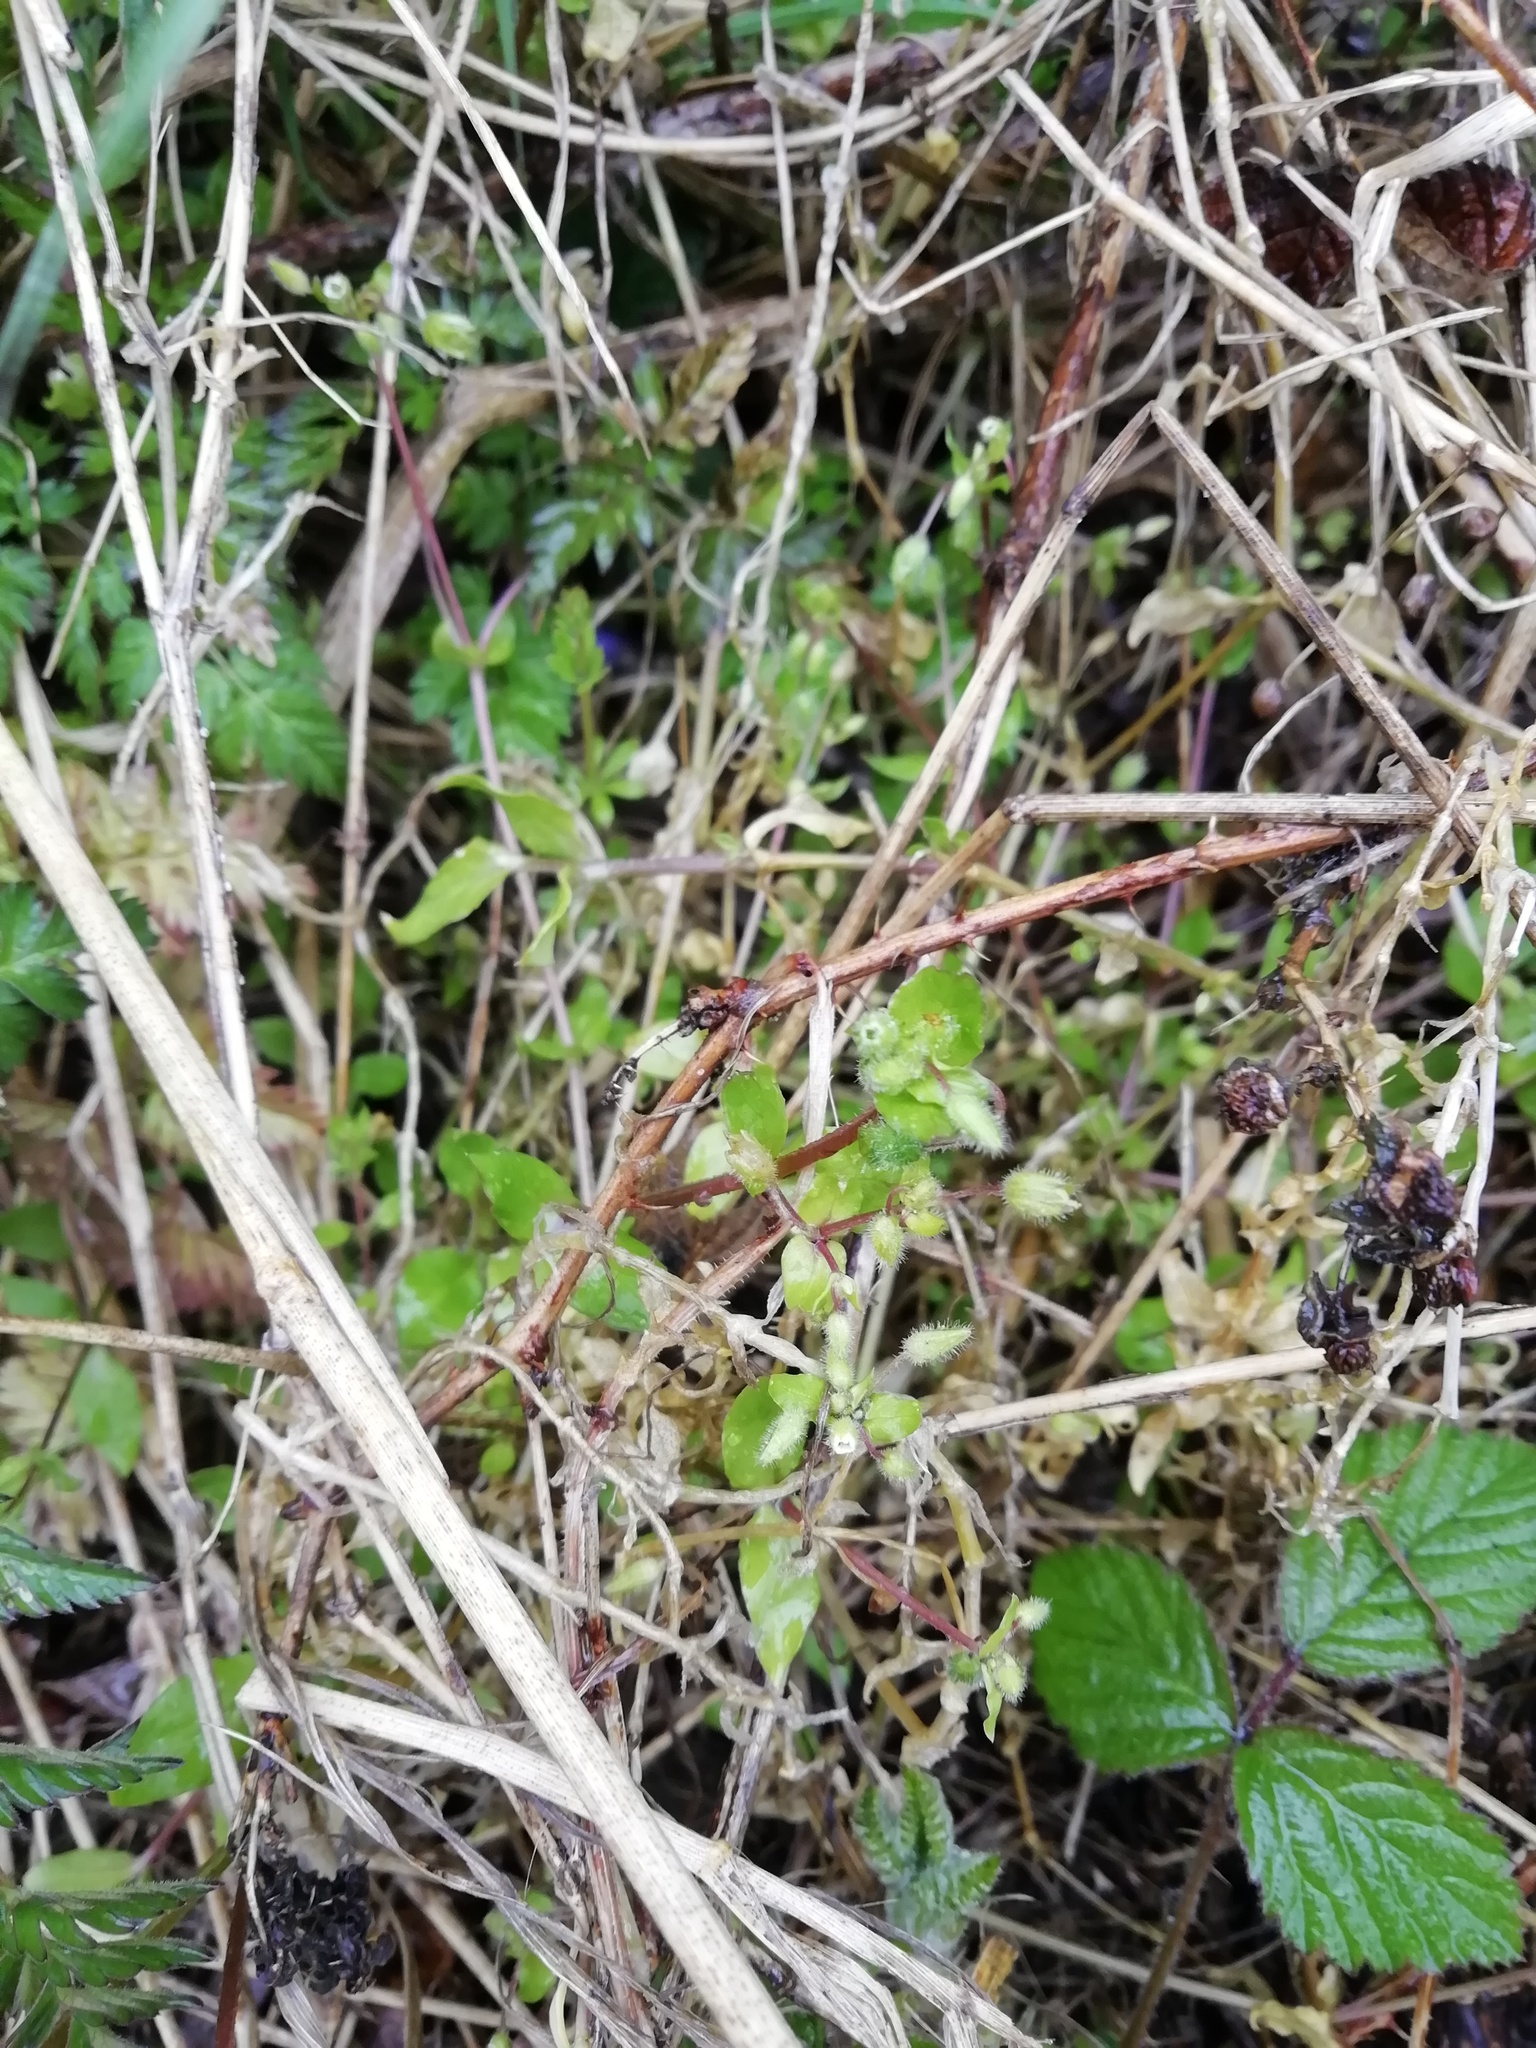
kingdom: Plantae
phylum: Tracheophyta
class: Magnoliopsida
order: Caryophyllales
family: Caryophyllaceae
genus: Stellaria
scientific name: Stellaria media
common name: Common chickweed
